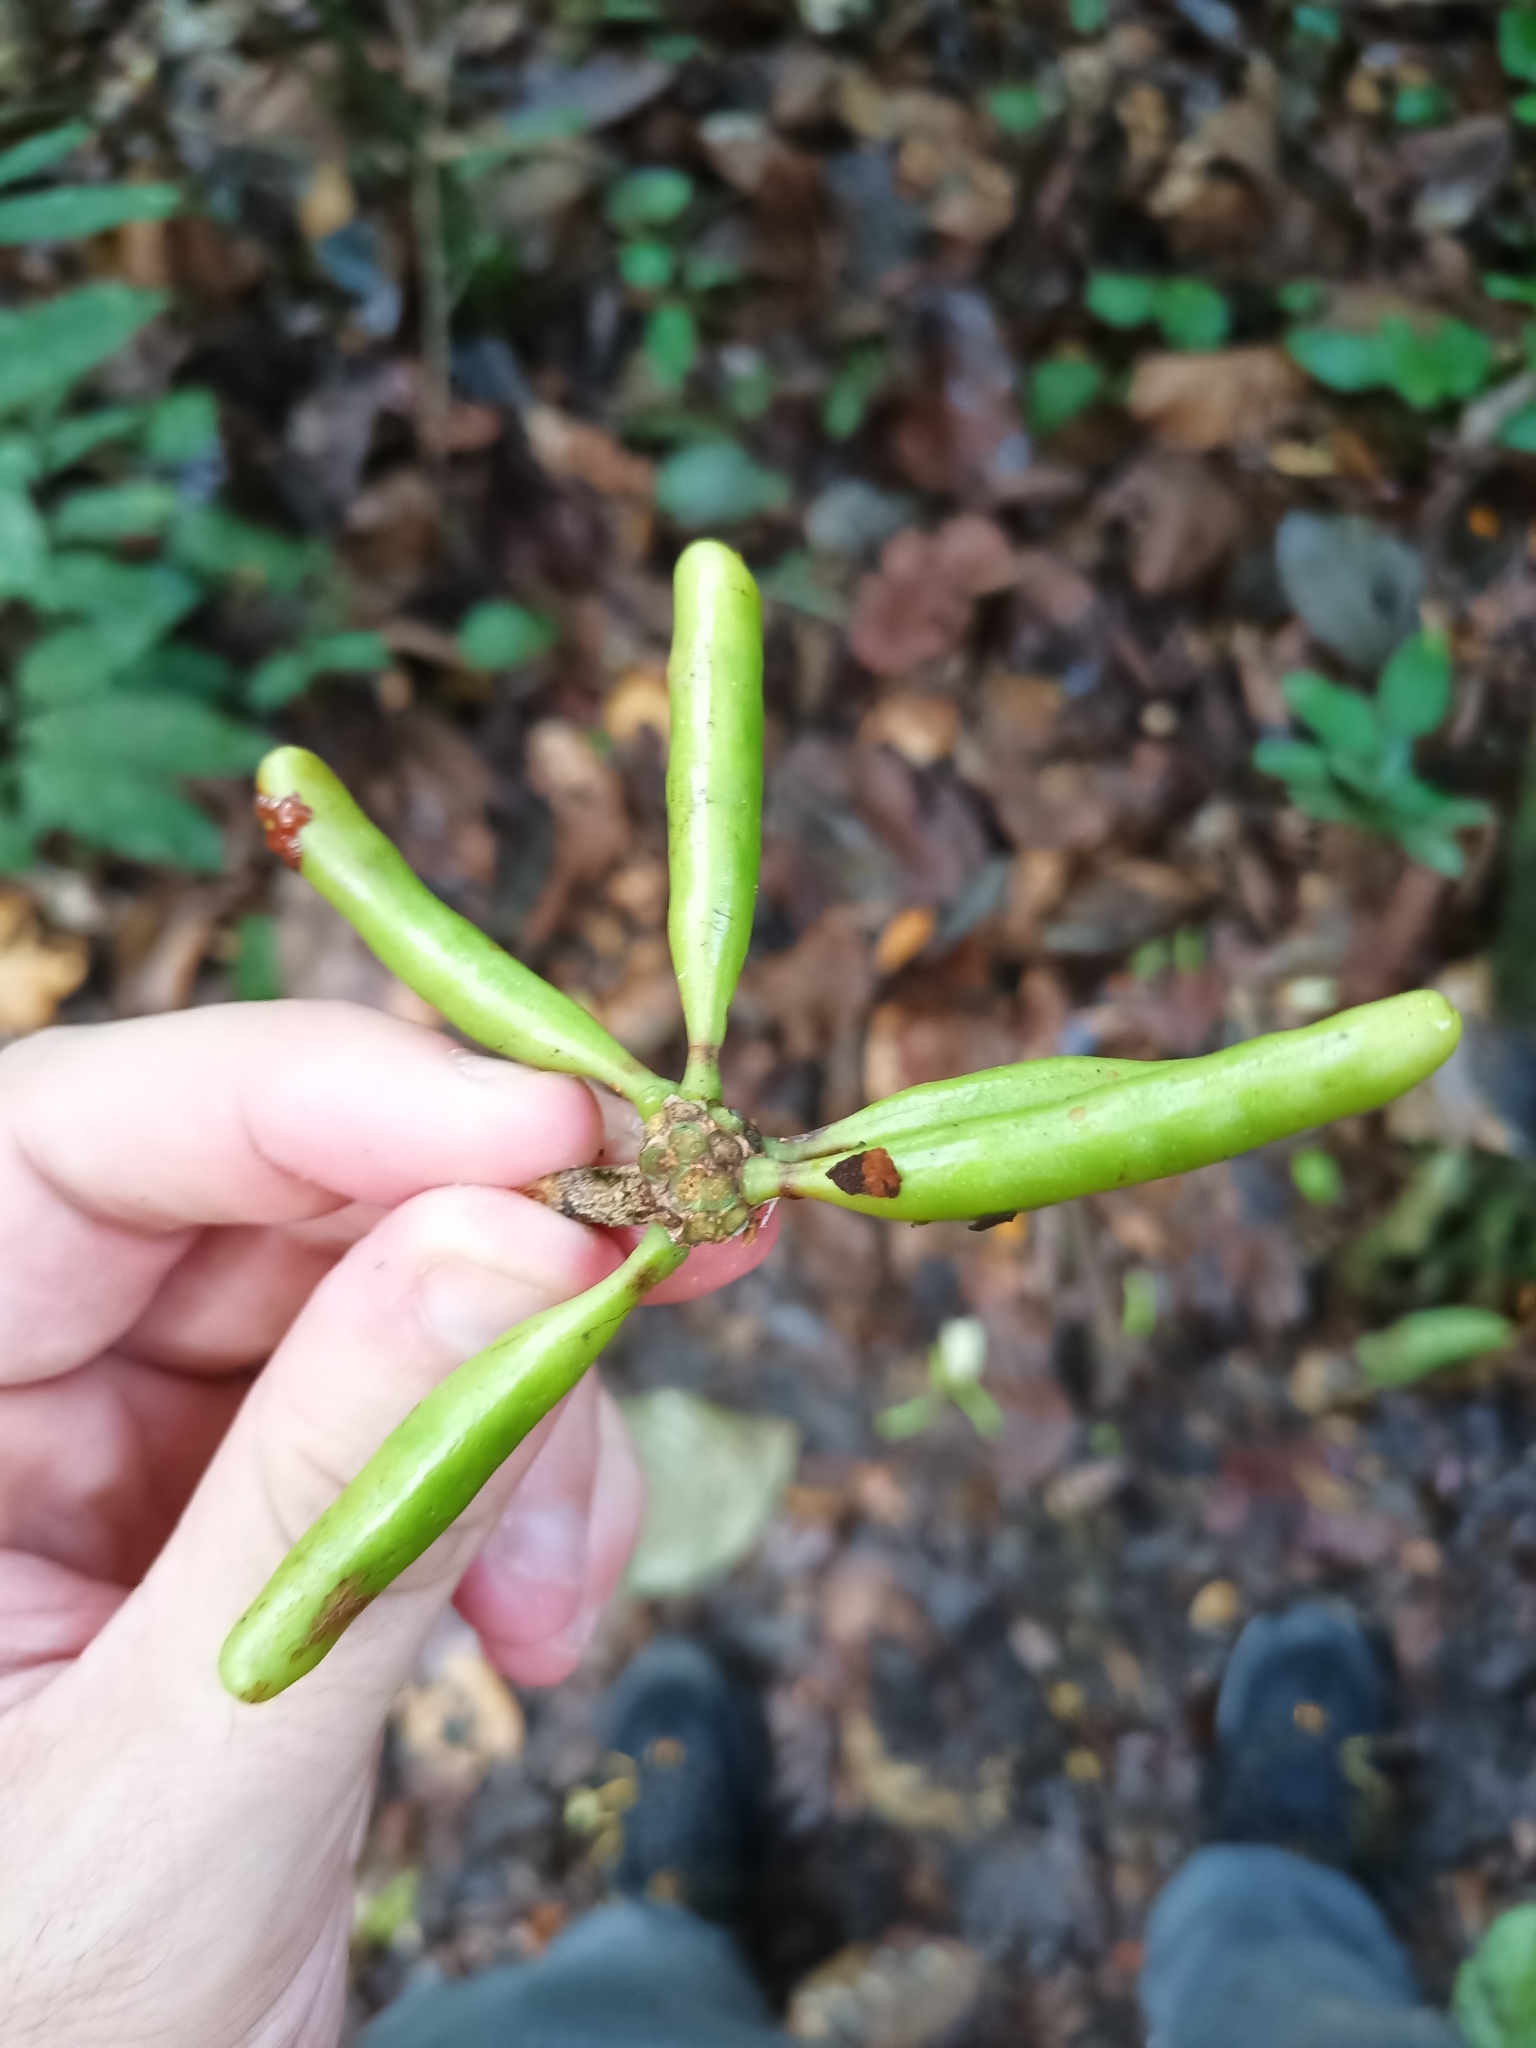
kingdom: Plantae
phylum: Tracheophyta
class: Magnoliopsida
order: Magnoliales
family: Annonaceae
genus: Xylopia
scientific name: Xylopia nitida
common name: White kuyama
